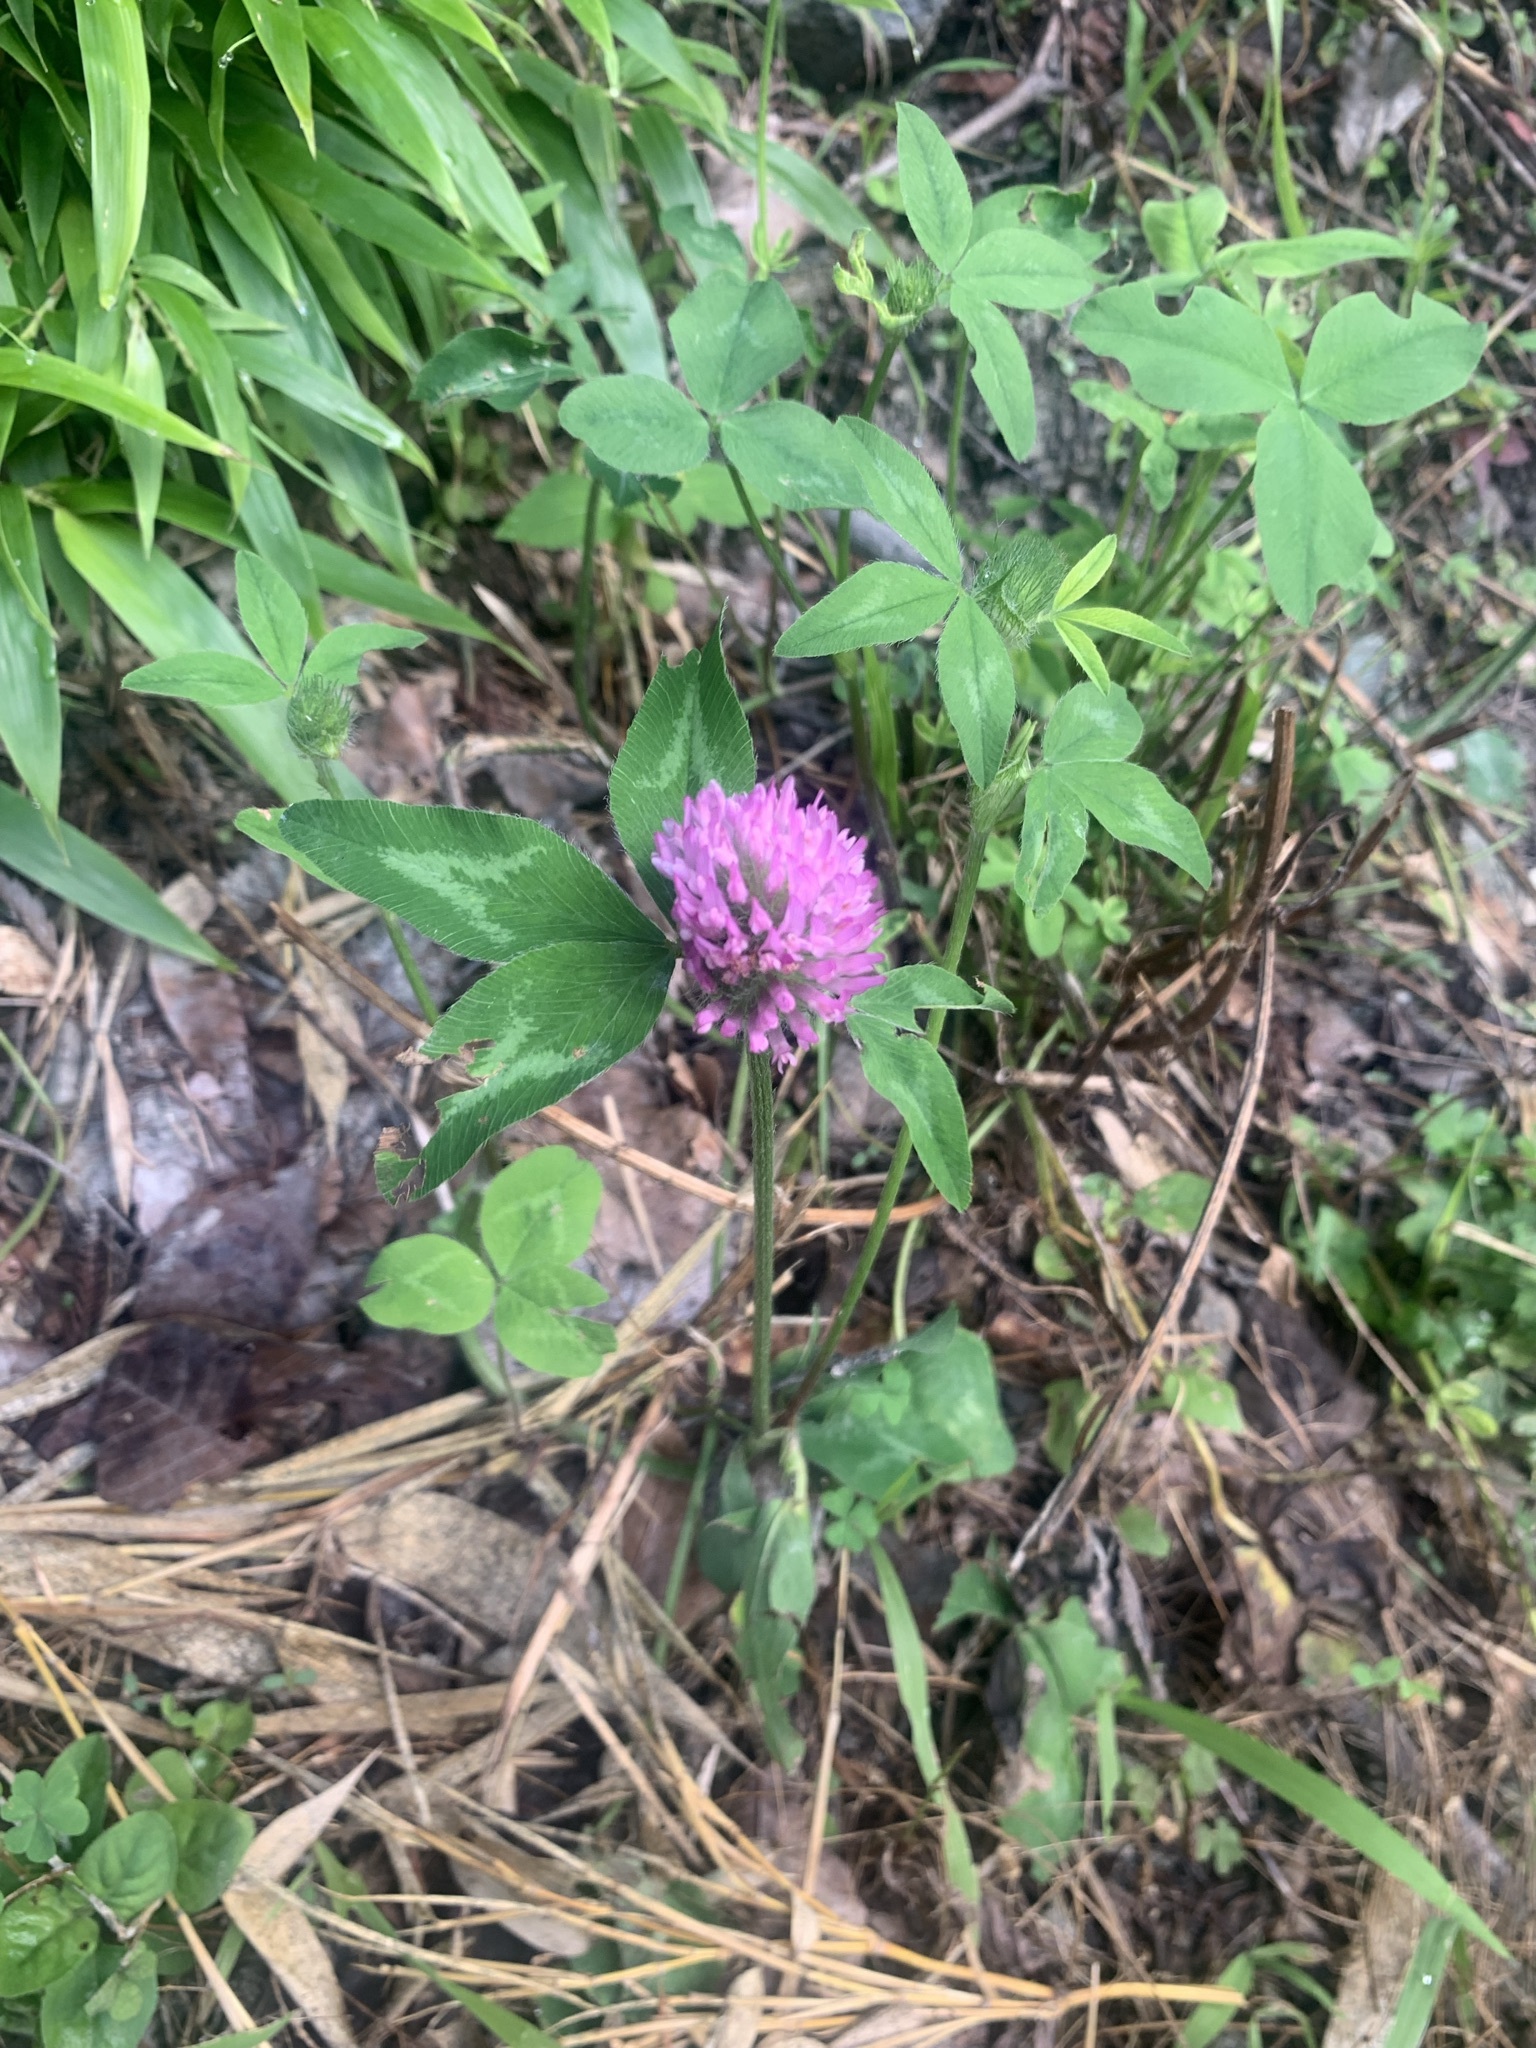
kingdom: Plantae
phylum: Tracheophyta
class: Magnoliopsida
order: Fabales
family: Fabaceae
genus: Trifolium
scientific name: Trifolium pratense
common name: Red clover
